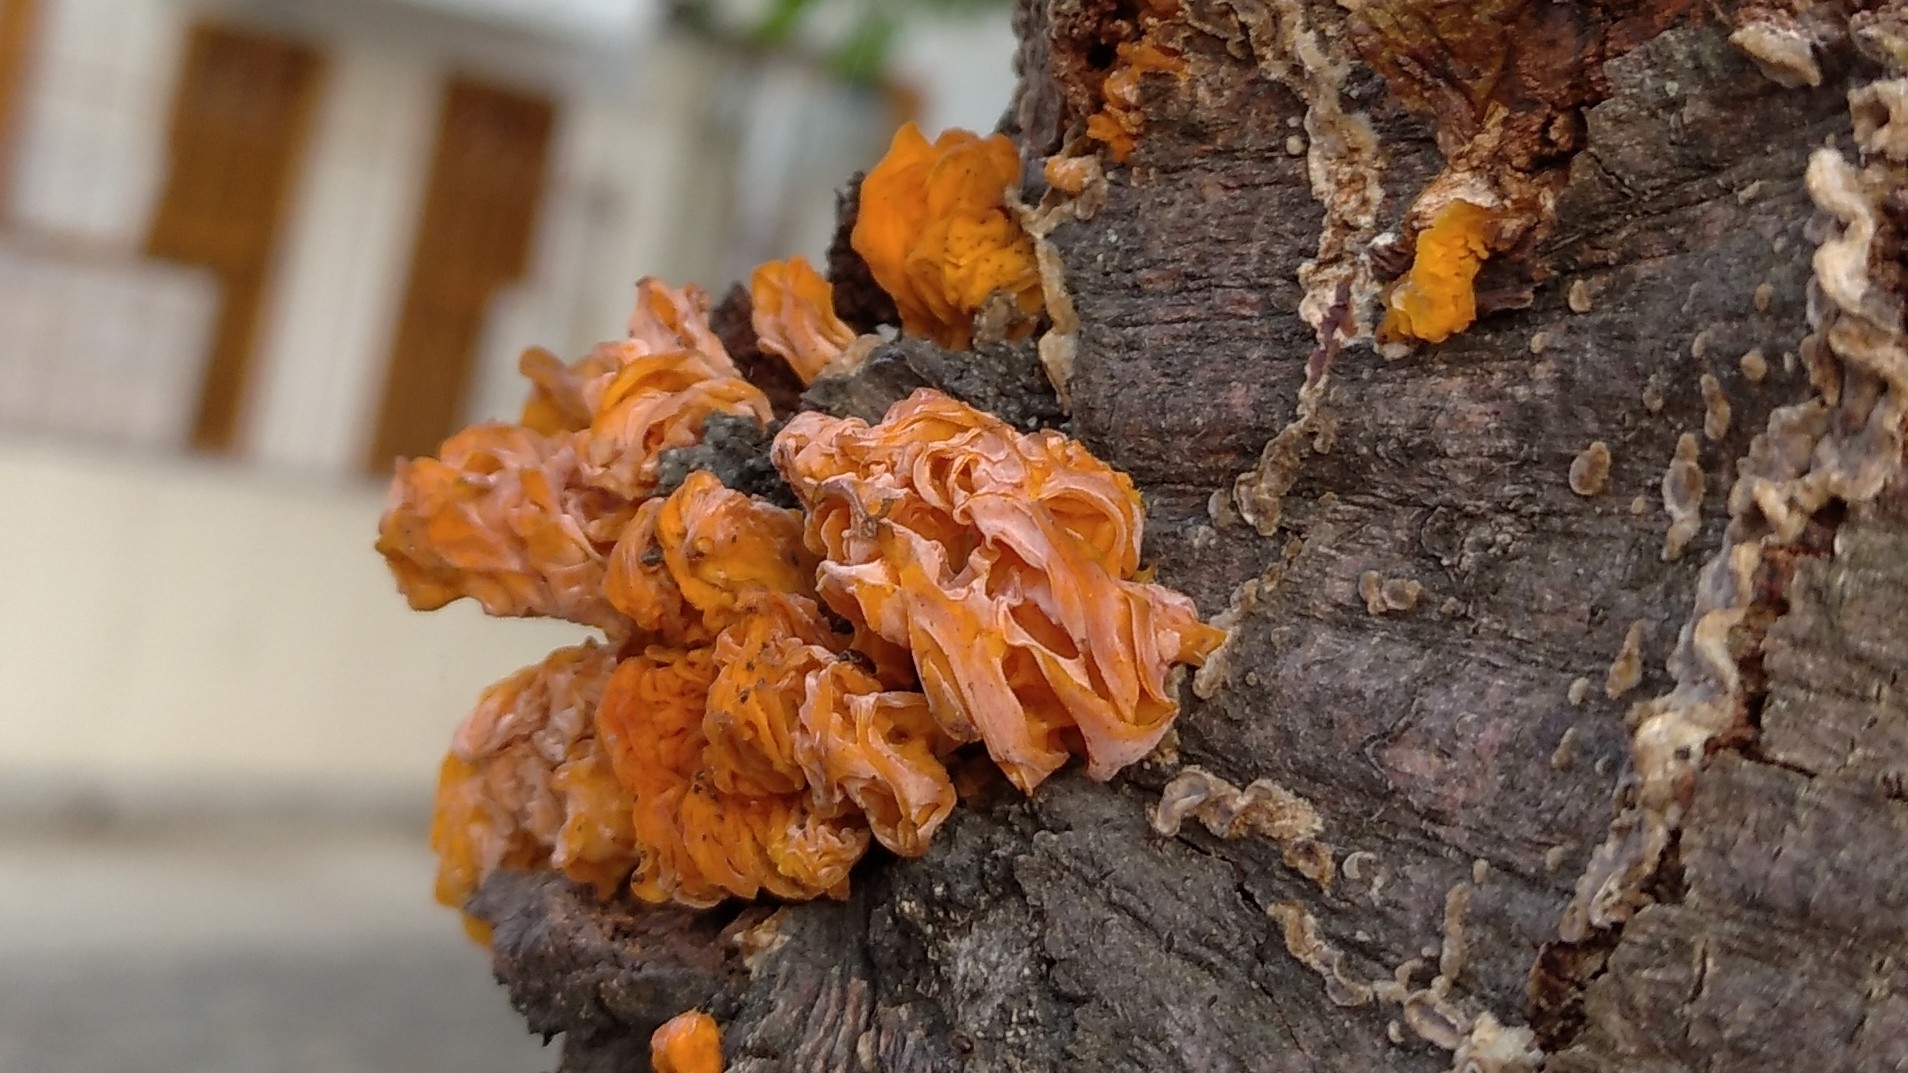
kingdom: Fungi
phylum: Basidiomycota
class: Tremellomycetes
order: Tremellales
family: Naemateliaceae
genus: Naematelia
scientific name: Naematelia aurantia
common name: Golden ear
